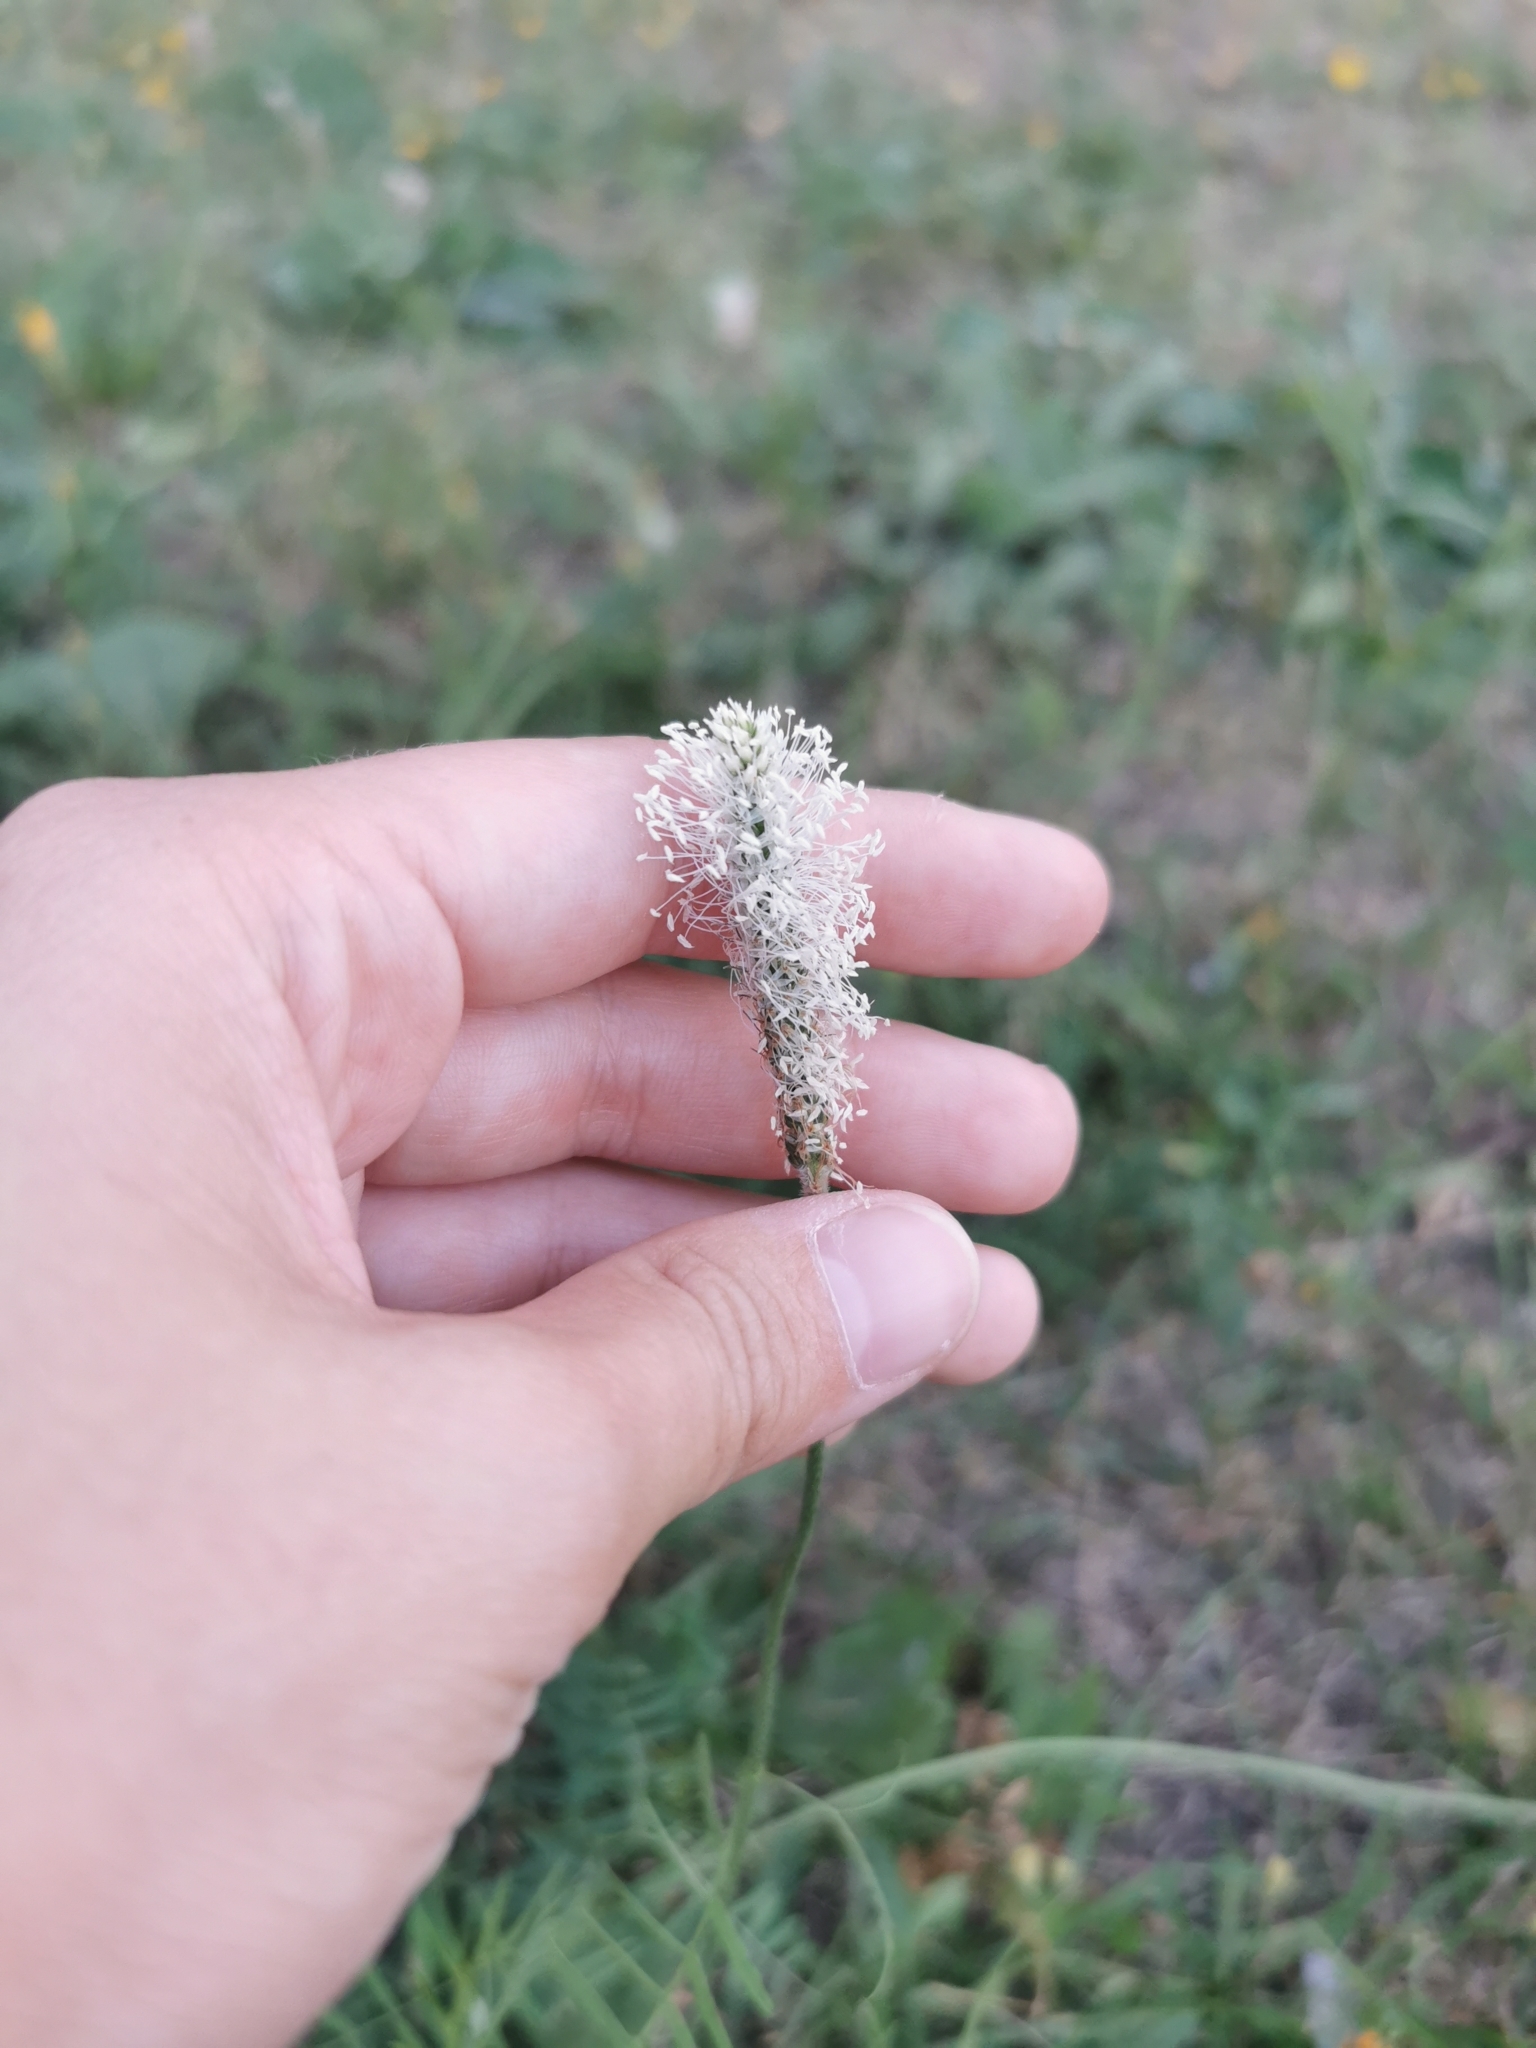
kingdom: Plantae
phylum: Tracheophyta
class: Magnoliopsida
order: Lamiales
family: Plantaginaceae
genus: Plantago
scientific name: Plantago media
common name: Hoary plantain
